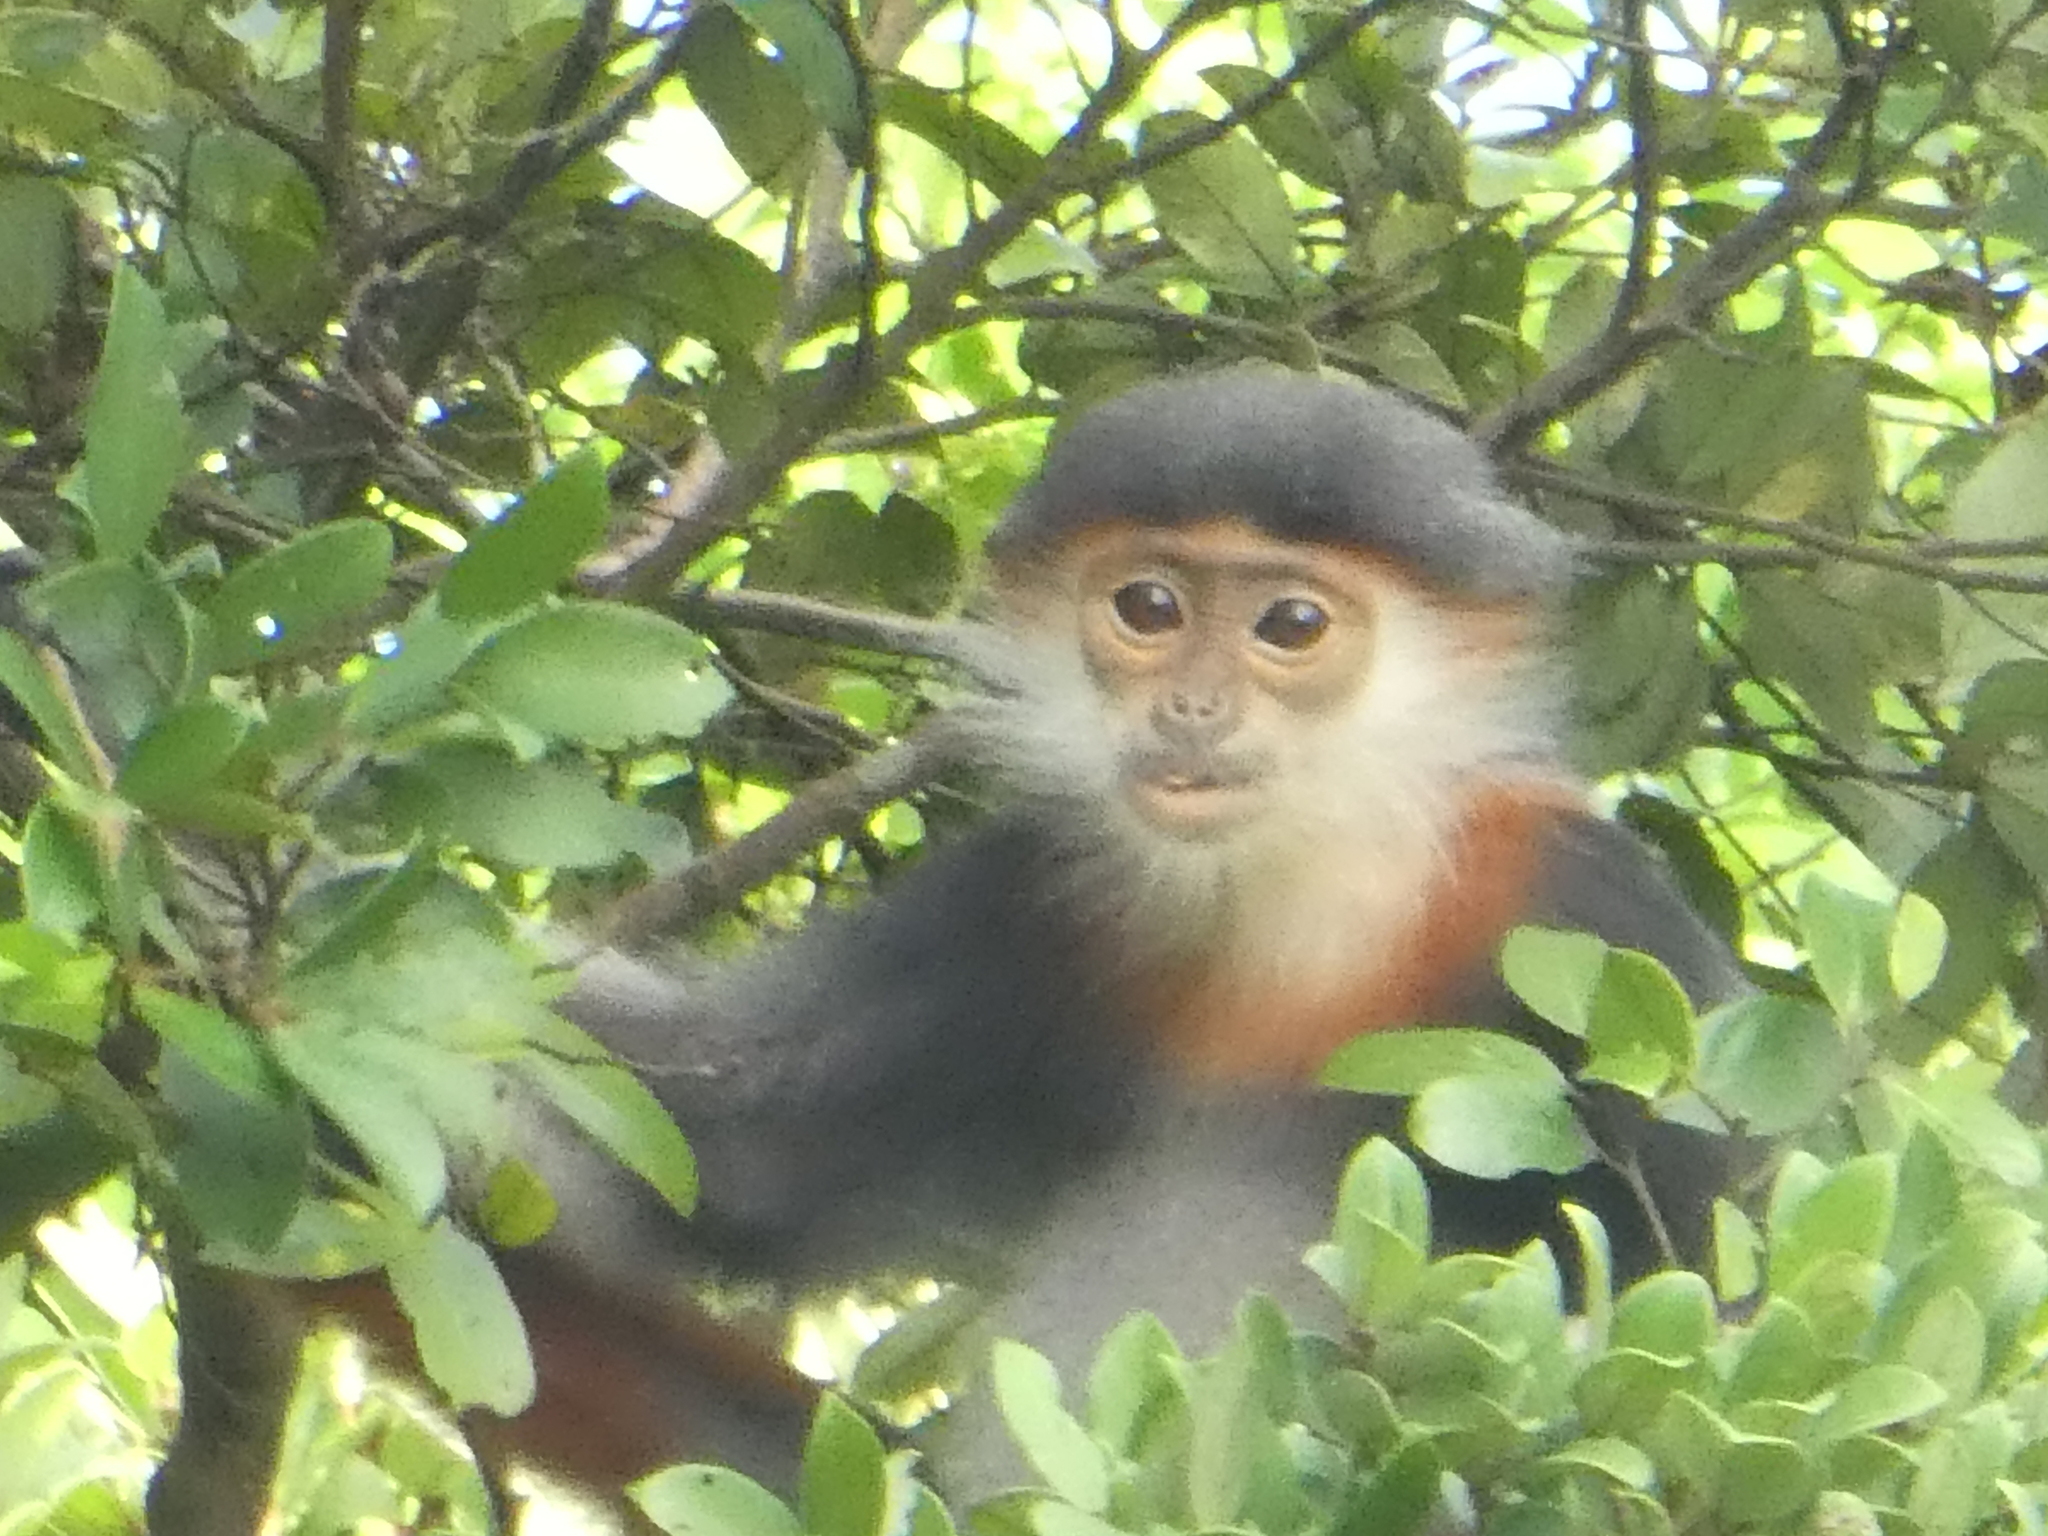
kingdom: Animalia
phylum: Chordata
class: Mammalia
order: Primates
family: Cercopithecidae
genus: Pygathrix
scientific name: Pygathrix nemaeus
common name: Red-shanked douc
